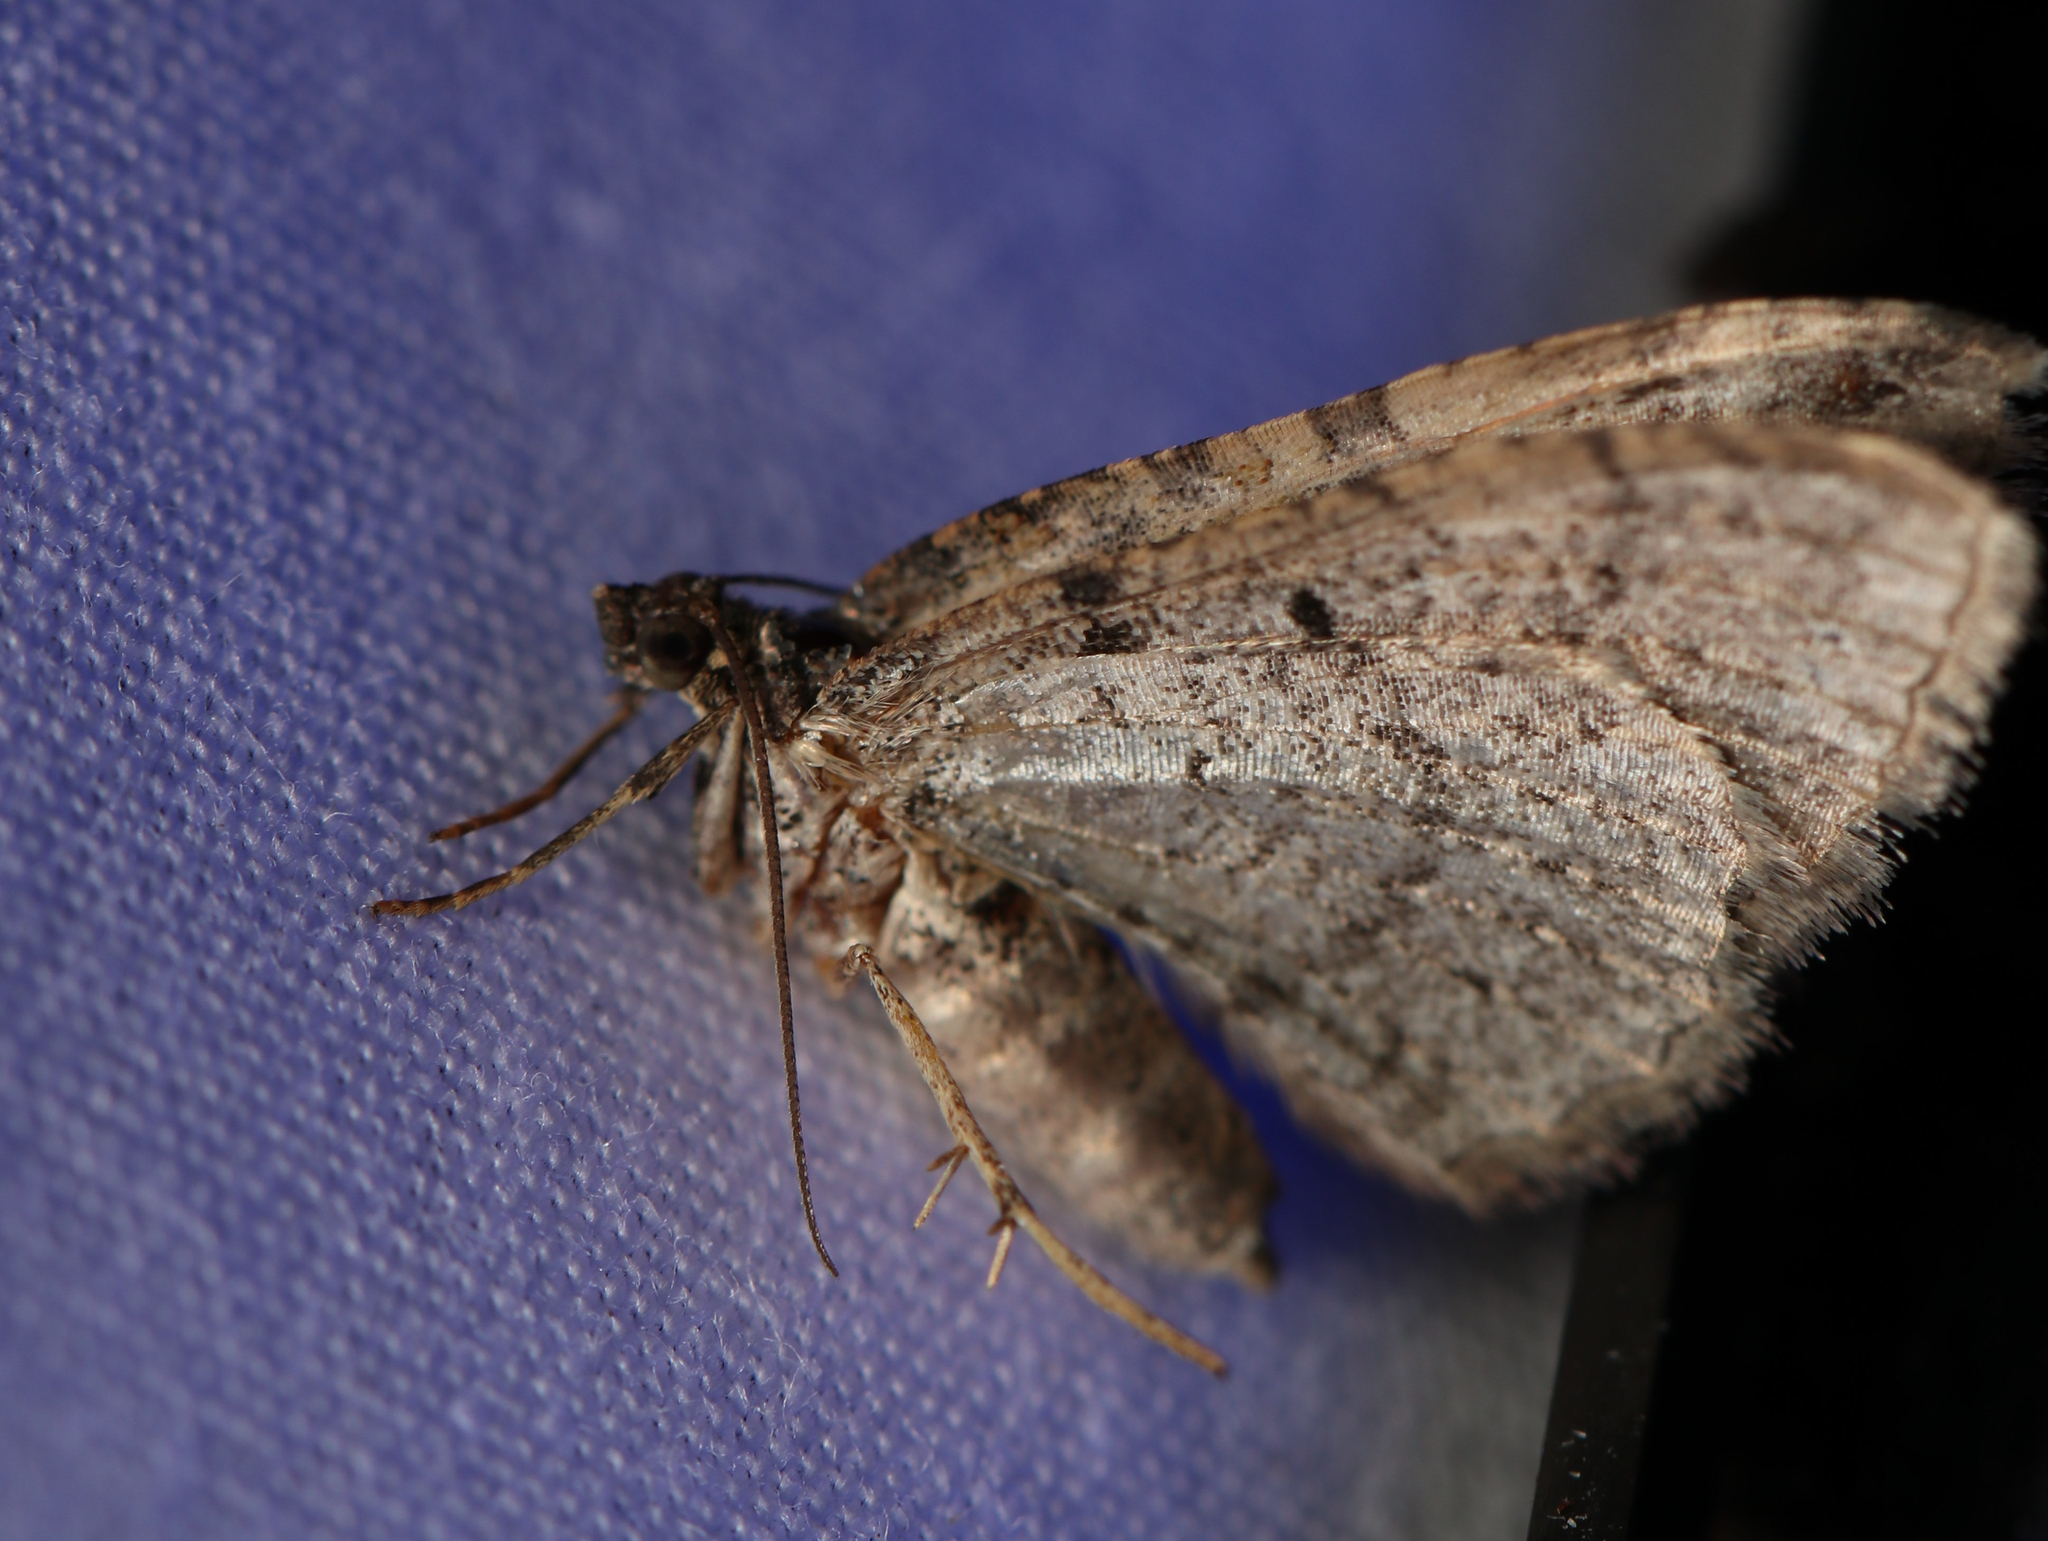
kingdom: Animalia
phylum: Arthropoda
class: Insecta
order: Lepidoptera
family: Geometridae
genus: Costaconvexa
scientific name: Costaconvexa centrostrigaria
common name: Bent-line carpet
